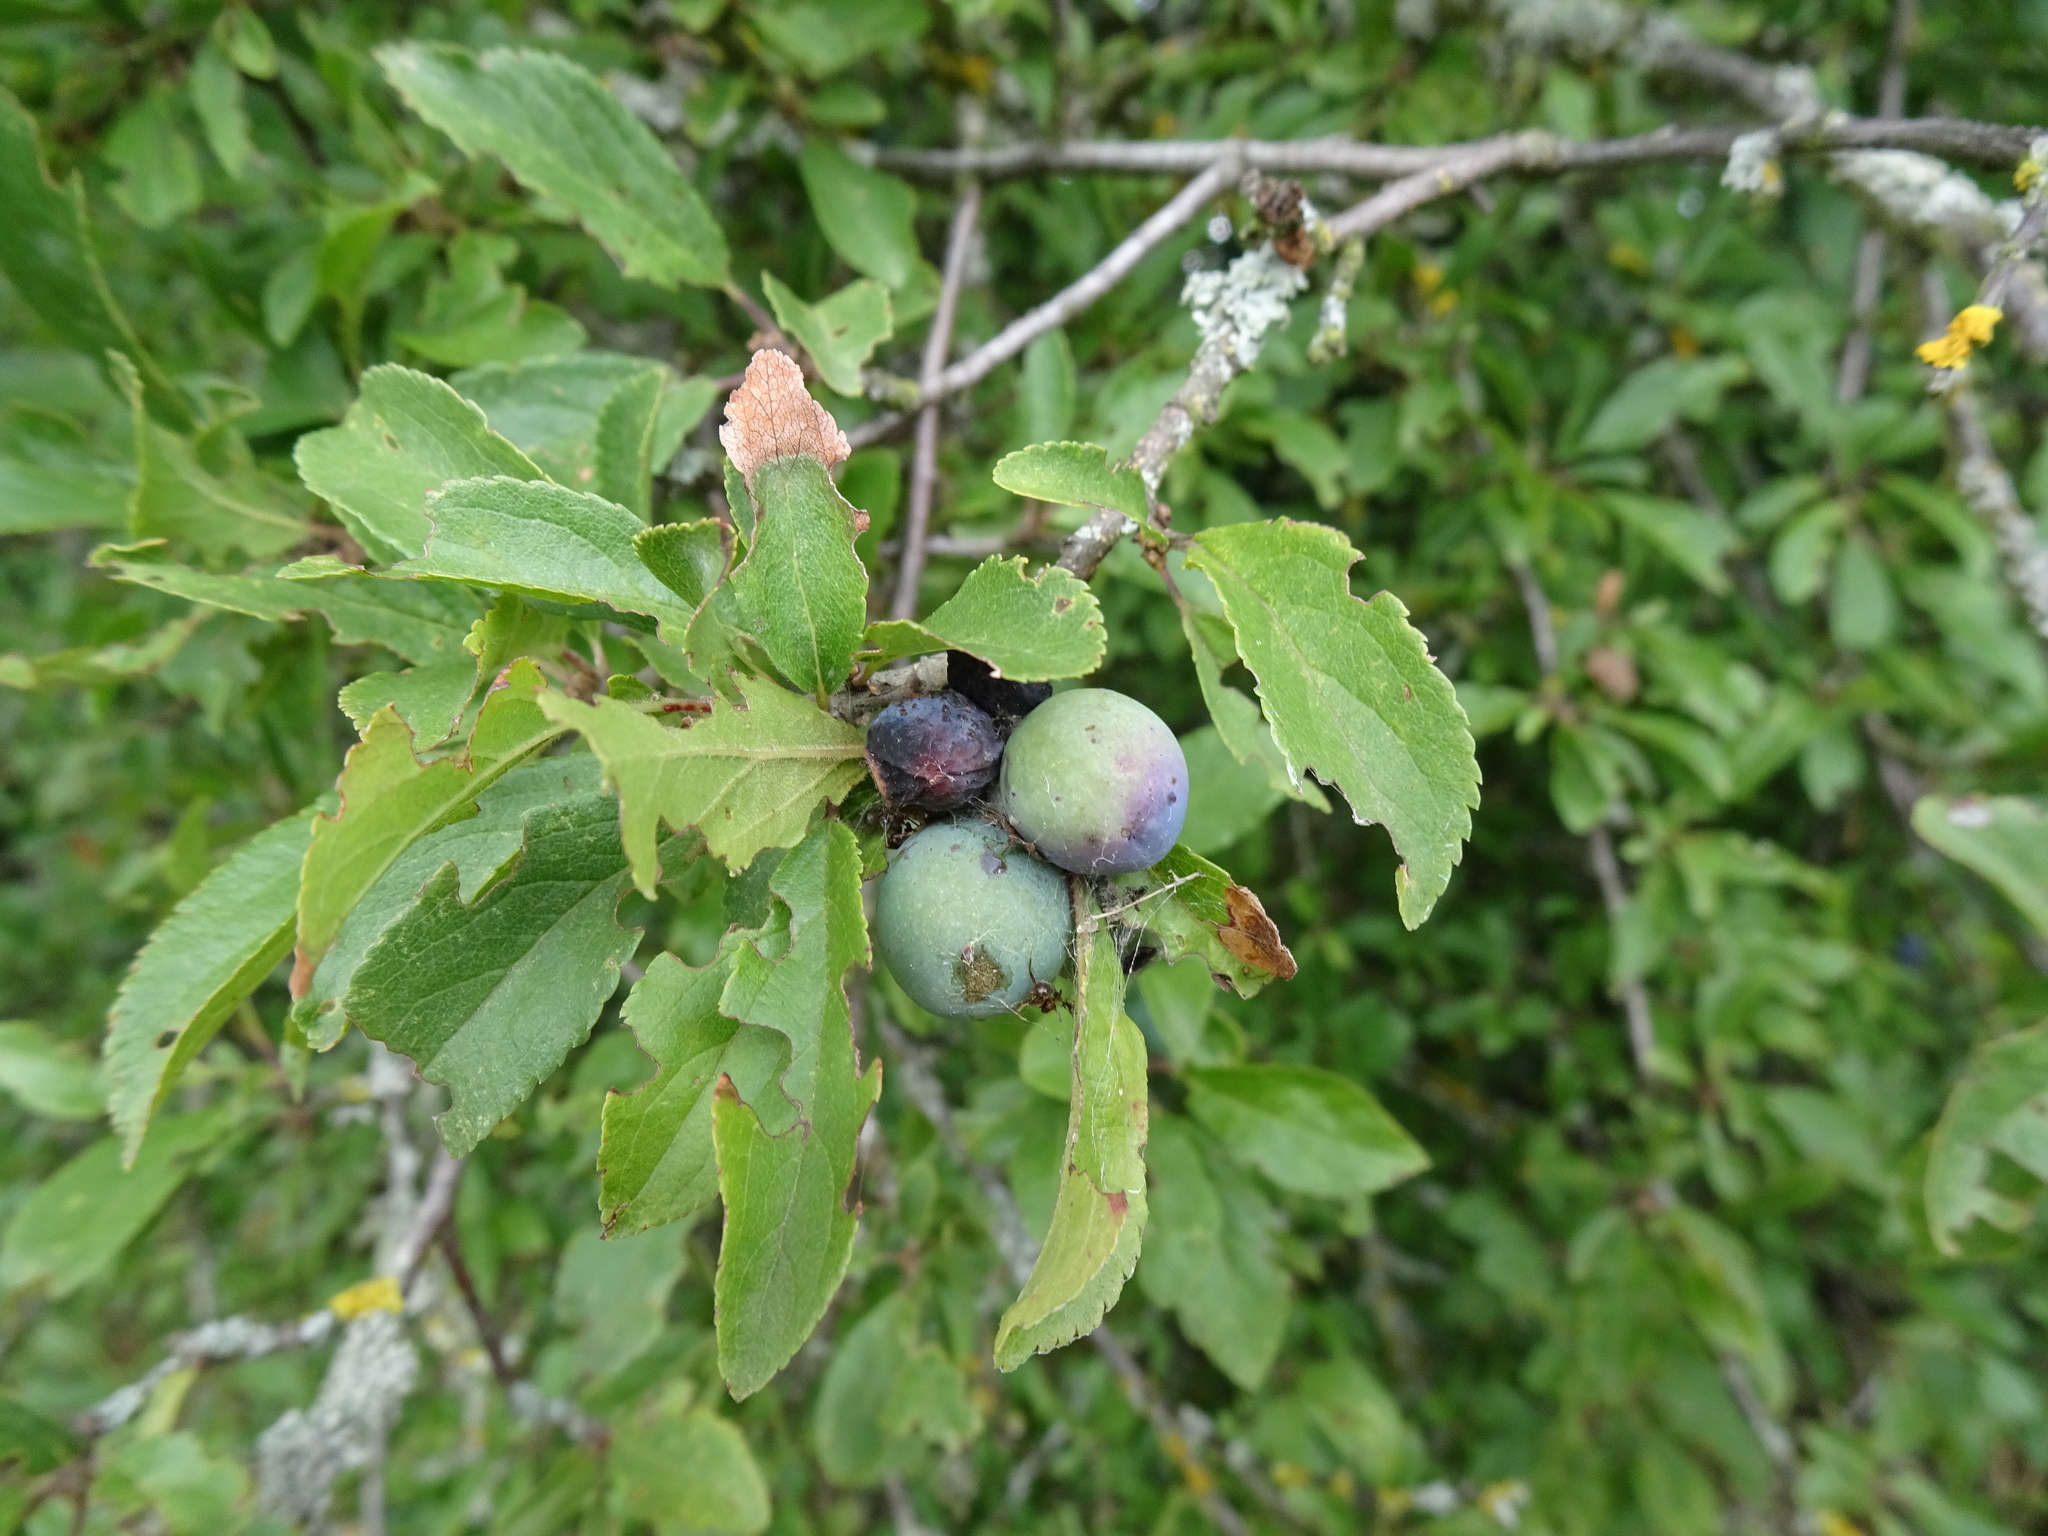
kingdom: Plantae
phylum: Tracheophyta
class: Magnoliopsida
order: Rosales
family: Rosaceae
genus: Prunus
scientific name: Prunus spinosa
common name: Blackthorn
